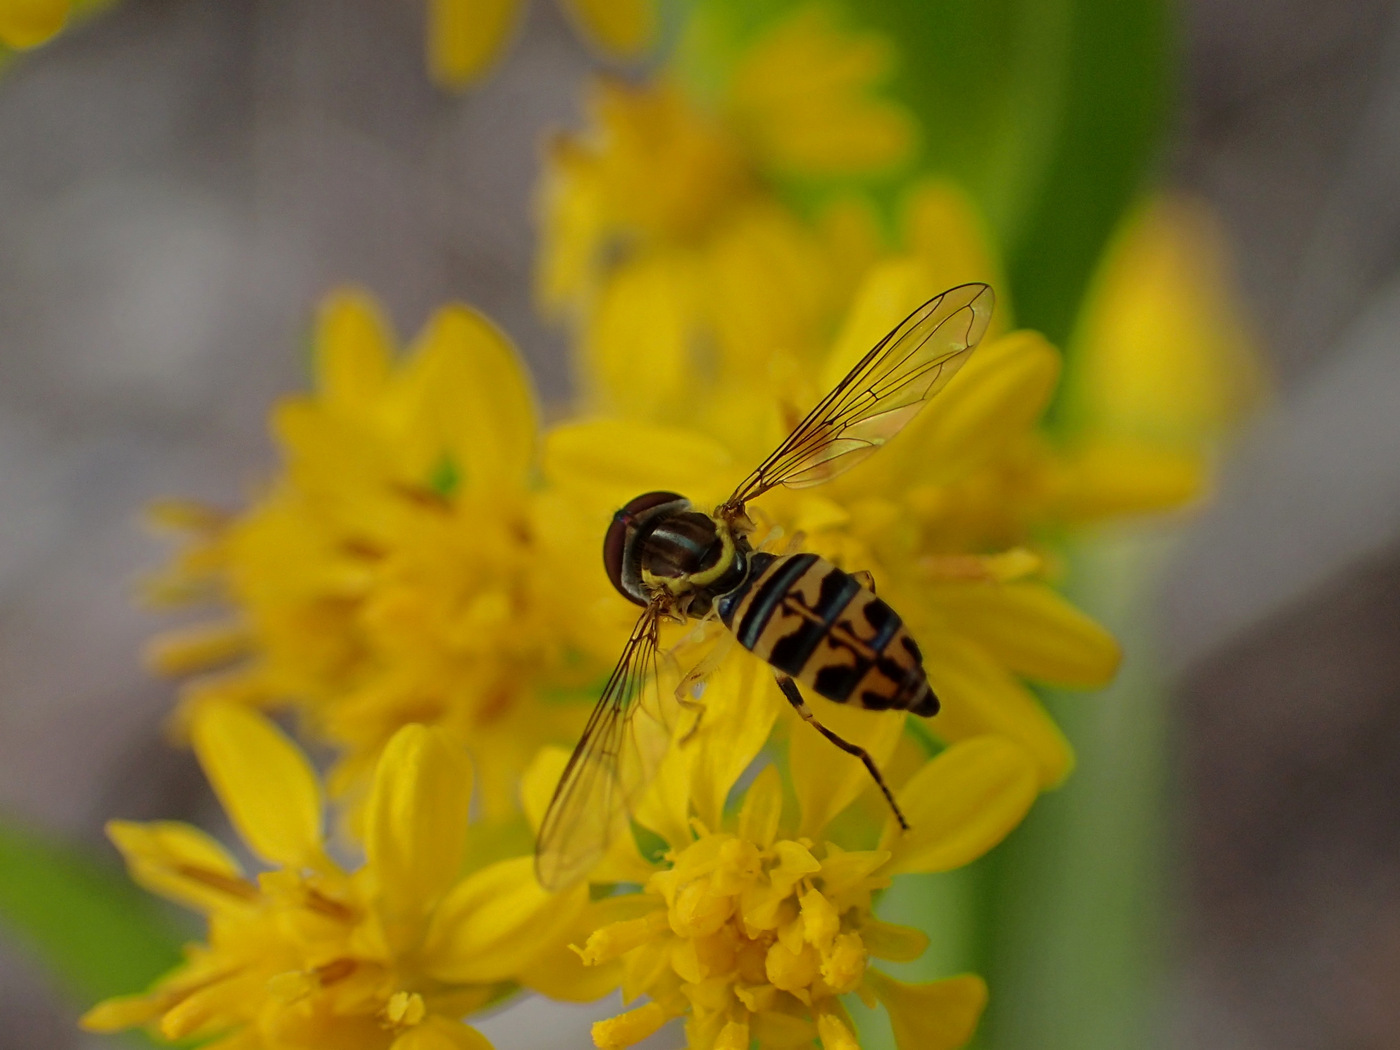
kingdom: Animalia
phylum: Arthropoda
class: Insecta
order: Diptera
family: Syrphidae
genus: Toxomerus
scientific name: Toxomerus geminatus
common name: Eastern calligrapher
